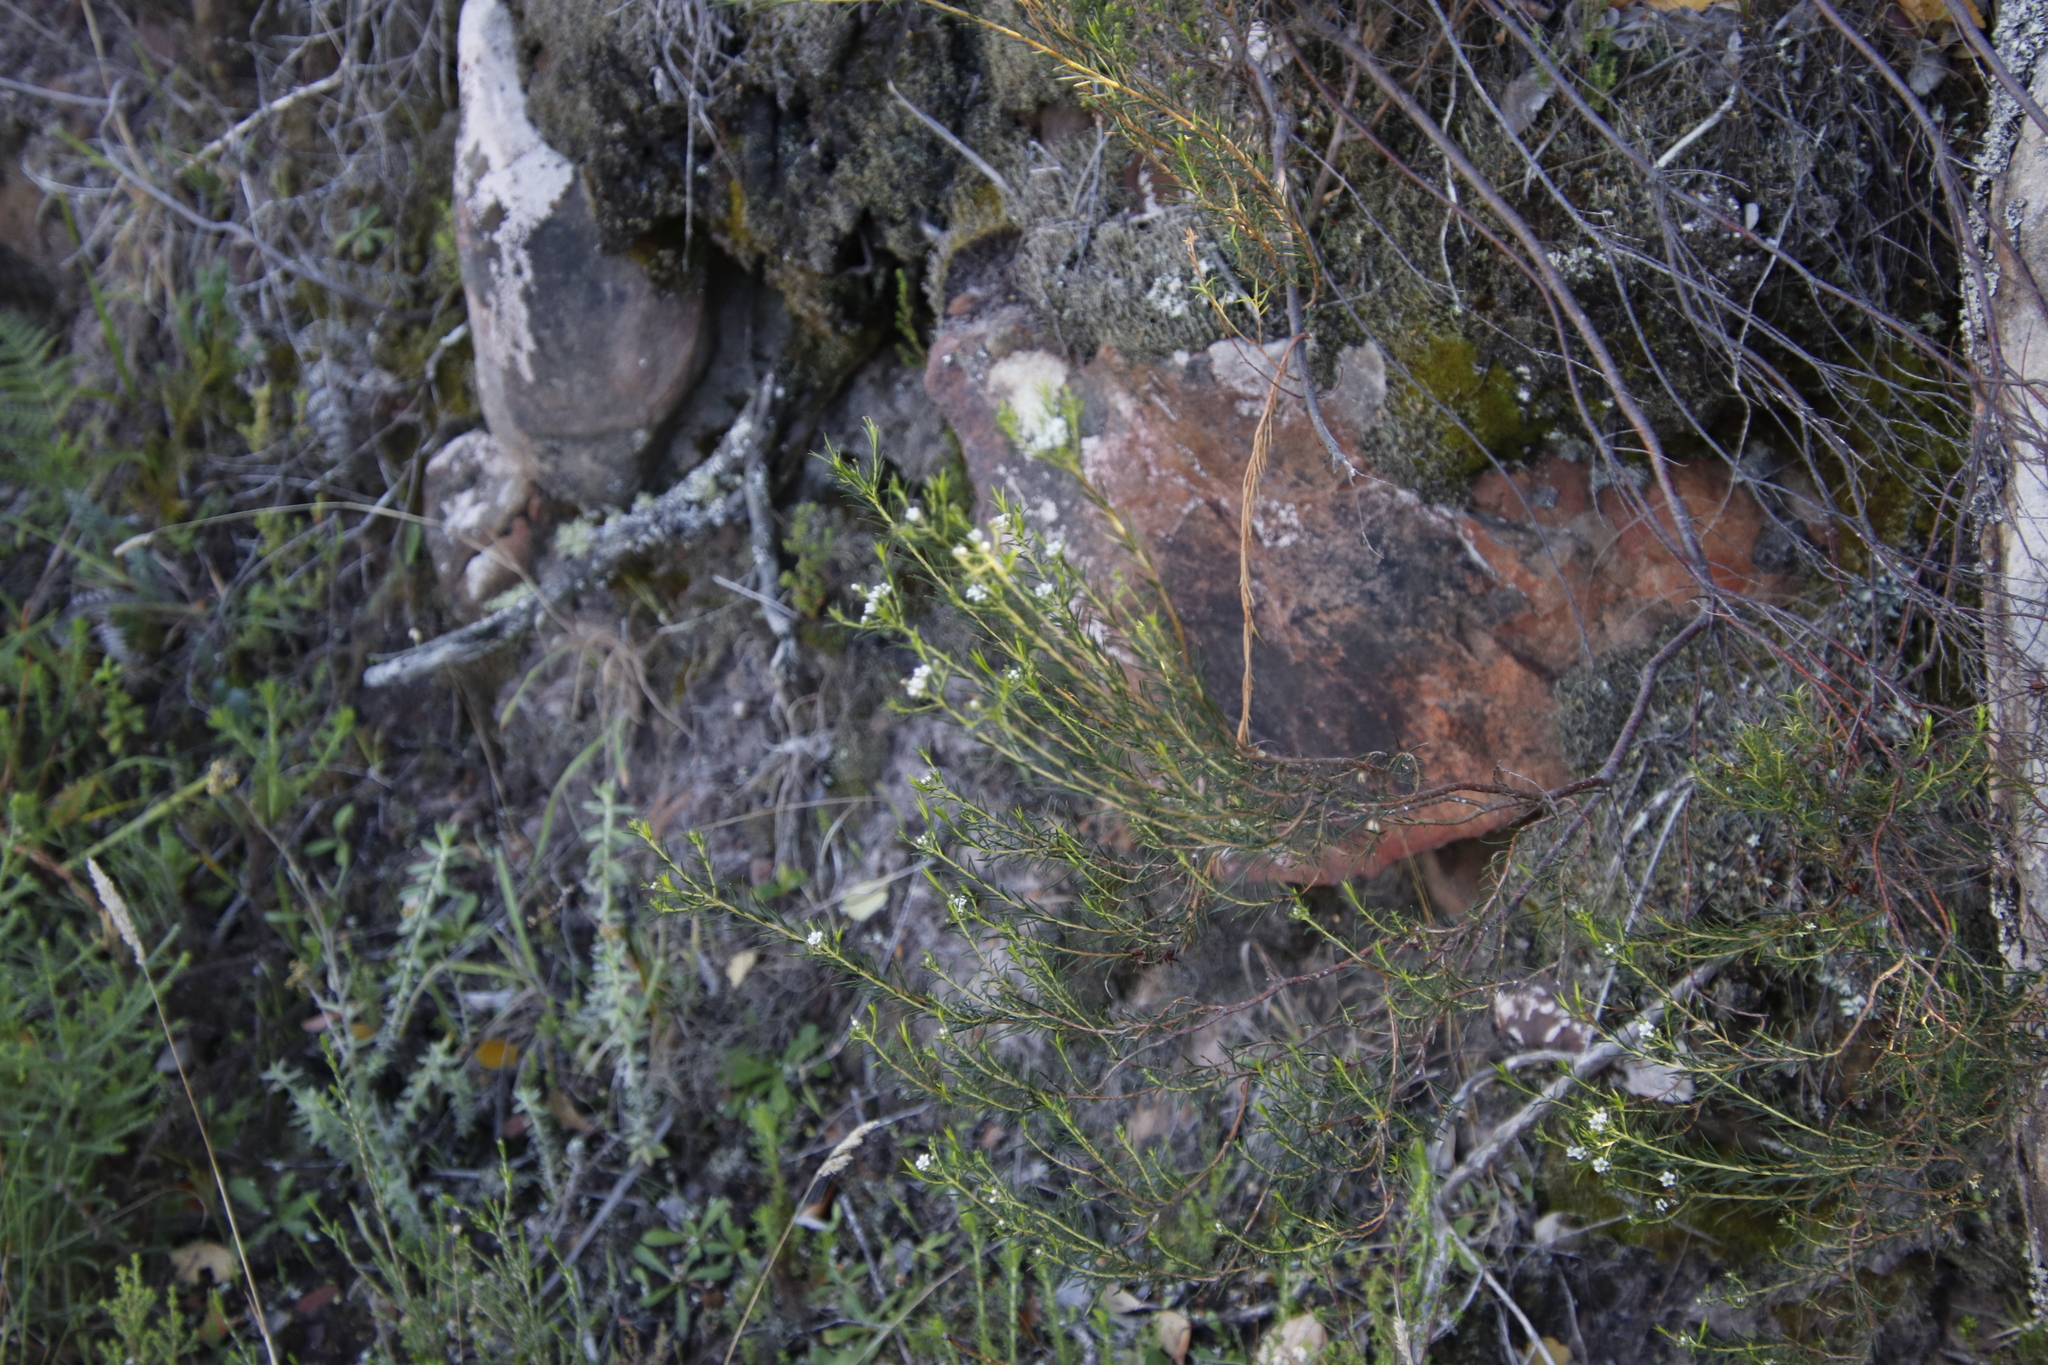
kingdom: Plantae
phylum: Tracheophyta
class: Magnoliopsida
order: Sapindales
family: Rutaceae
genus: Diosma
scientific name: Diosma hirsuta
